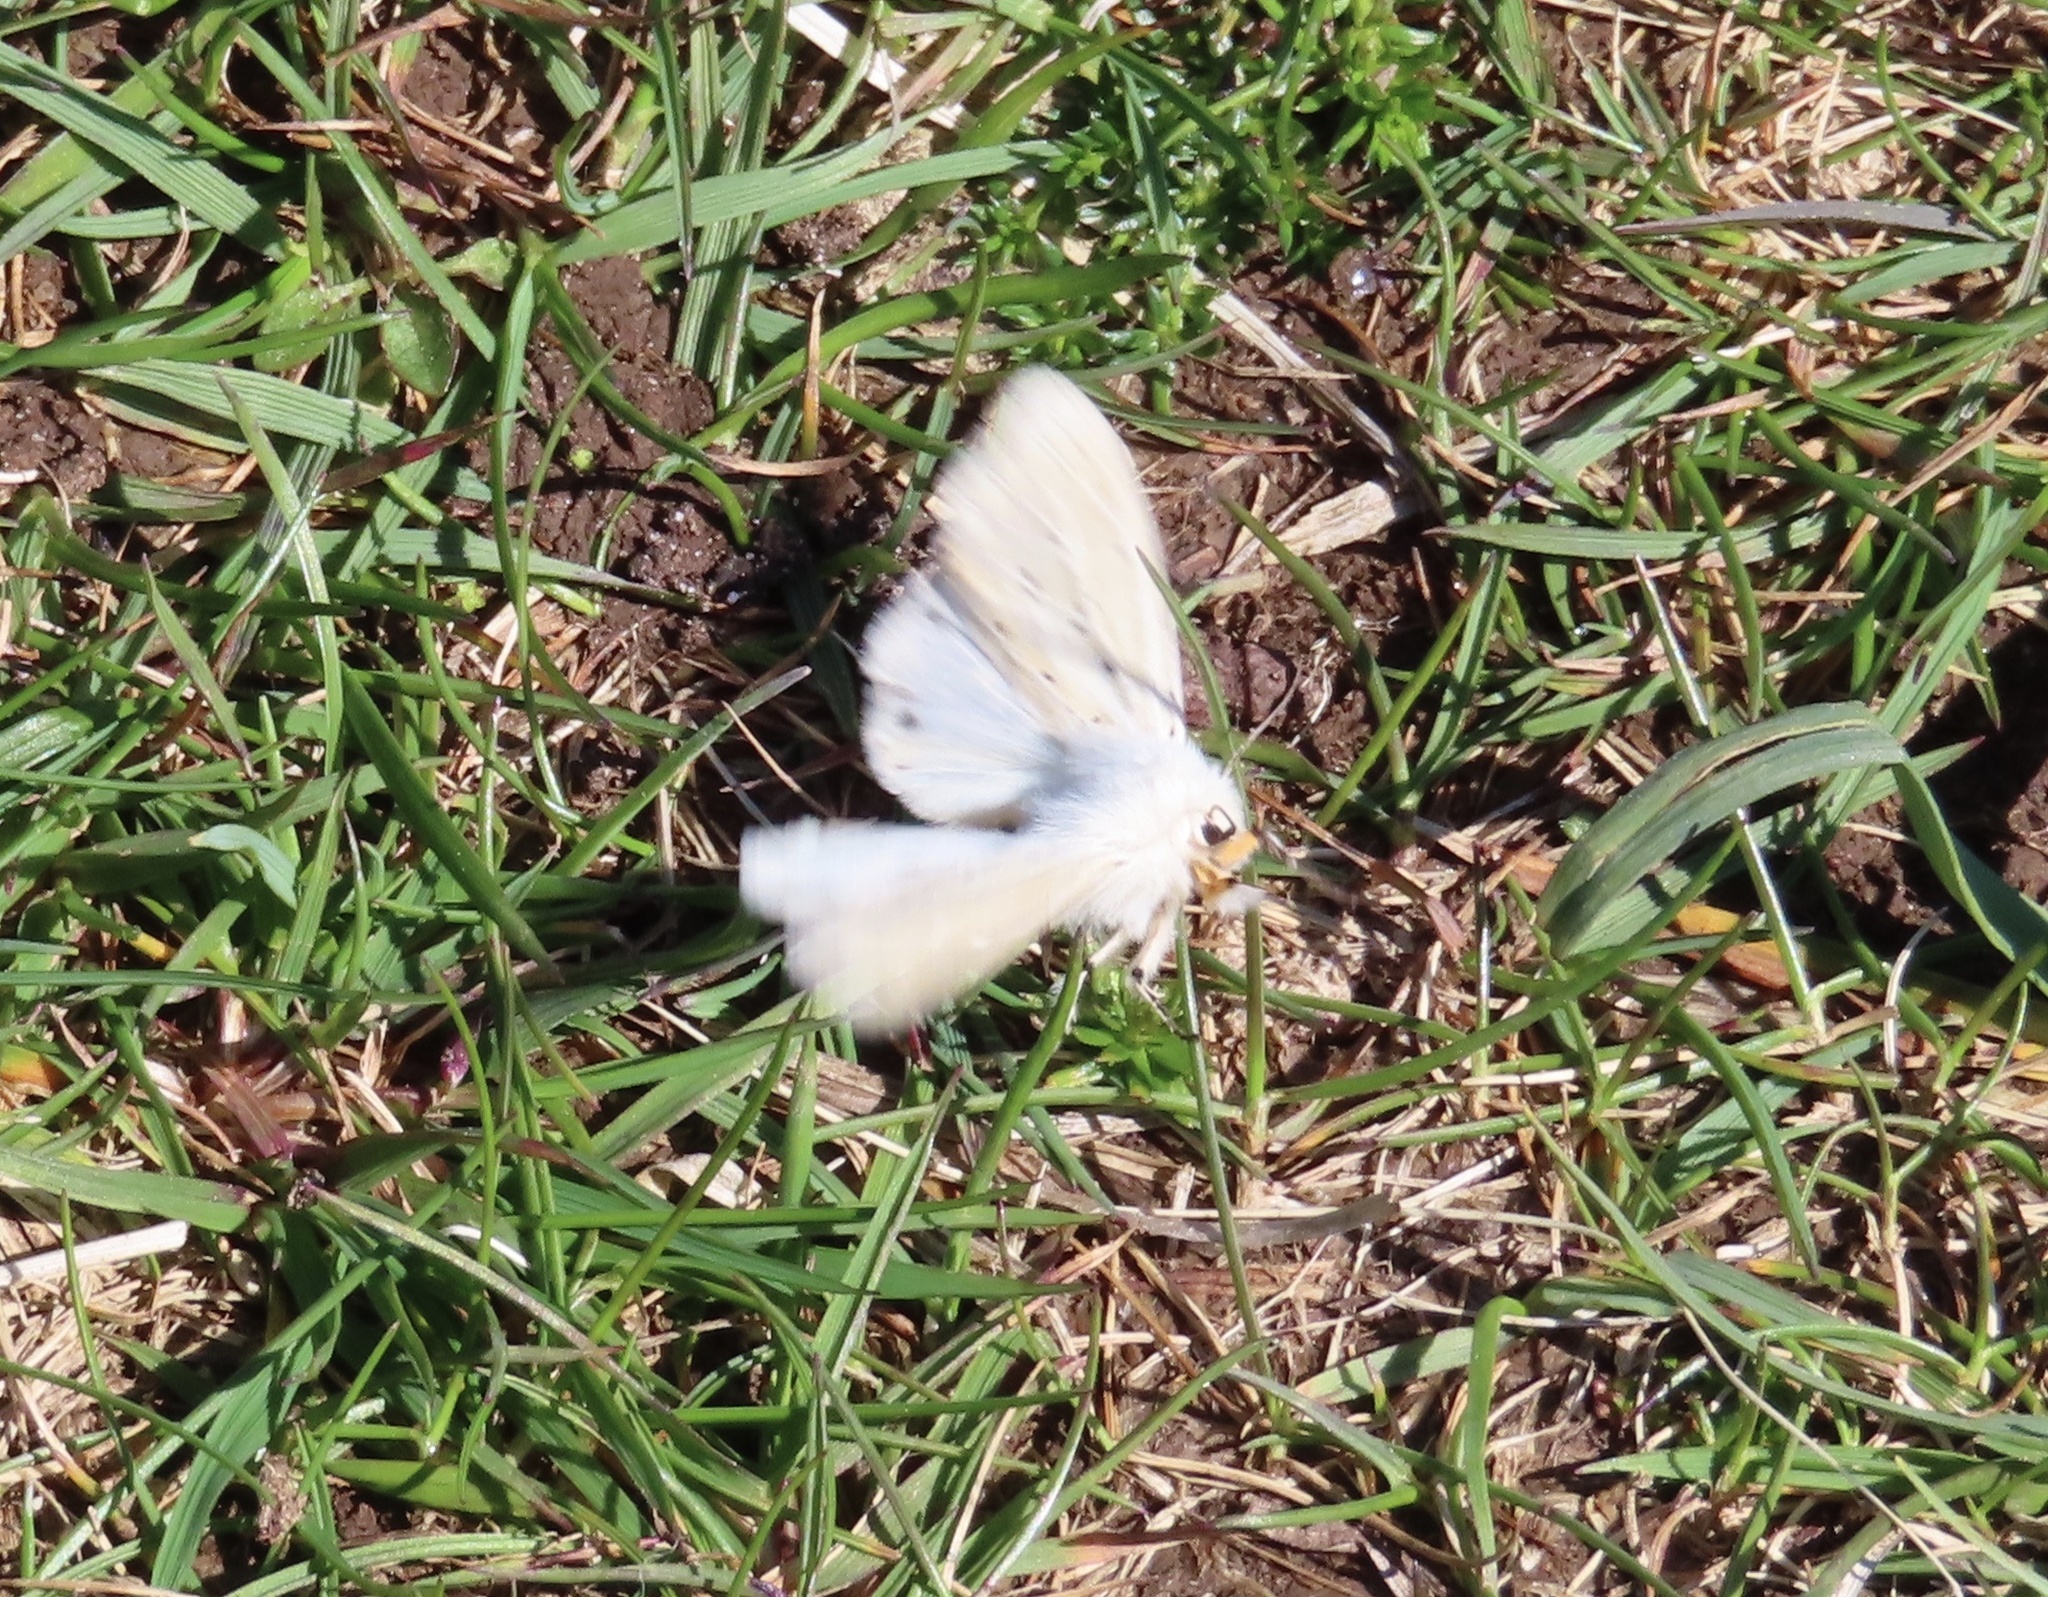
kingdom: Animalia
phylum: Arthropoda
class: Insecta
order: Lepidoptera
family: Erebidae
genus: Spilosoma
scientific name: Spilosoma lubricipeda
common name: White ermine
